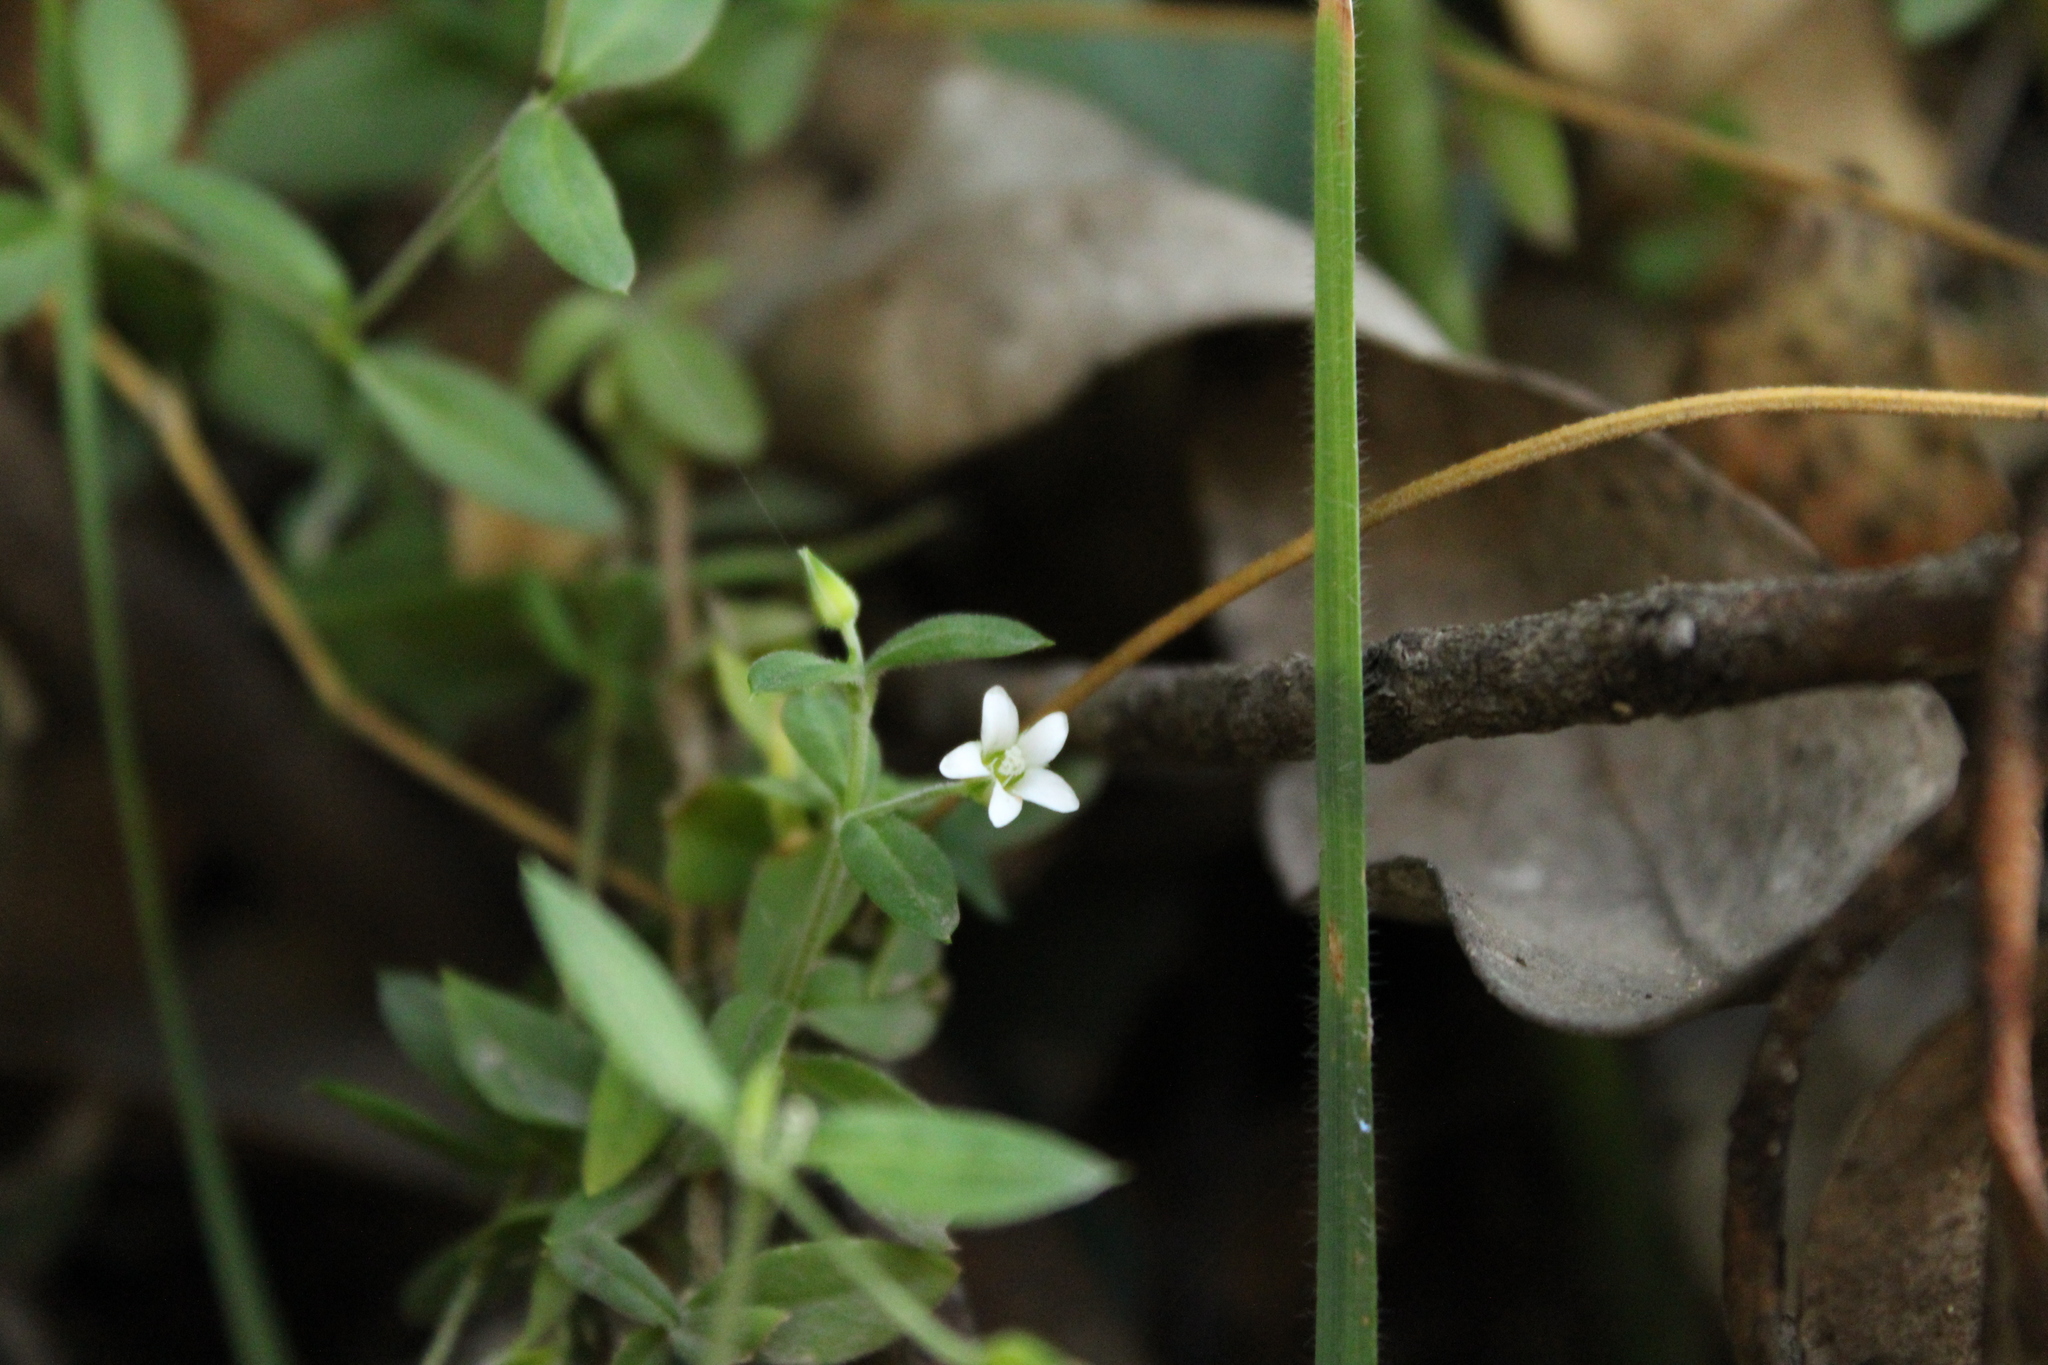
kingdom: Plantae
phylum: Tracheophyta
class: Magnoliopsida
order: Caryophyllales
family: Caryophyllaceae
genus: Arenaria
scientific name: Arenaria lanuginosa
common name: Spread sandwort
